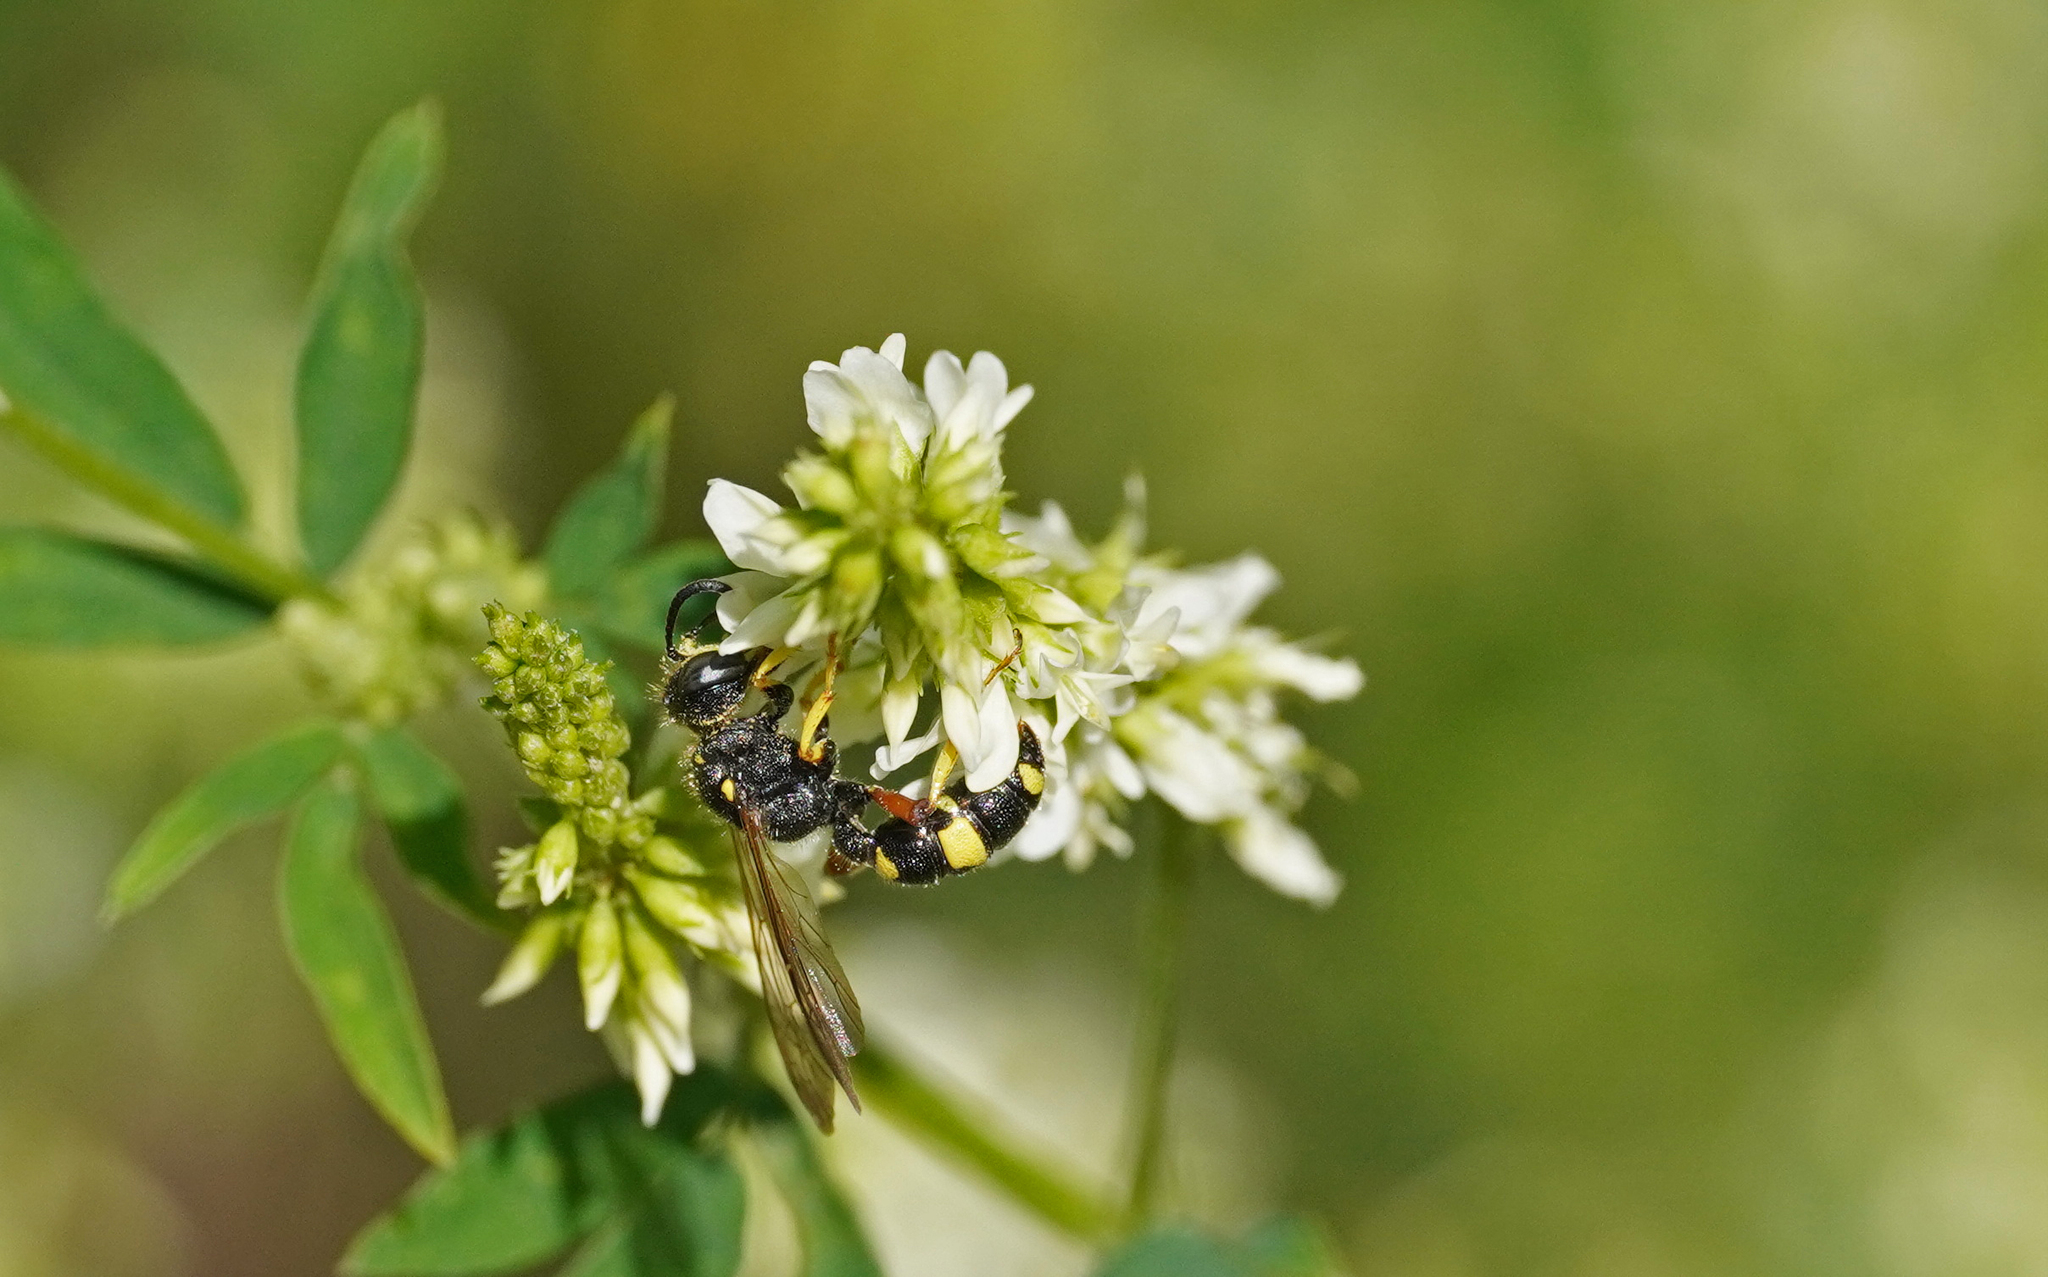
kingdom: Animalia
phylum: Arthropoda
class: Insecta
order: Hymenoptera
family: Crabronidae
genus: Cerceris
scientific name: Cerceris rybyensis
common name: Ornate tailed digger wasp
